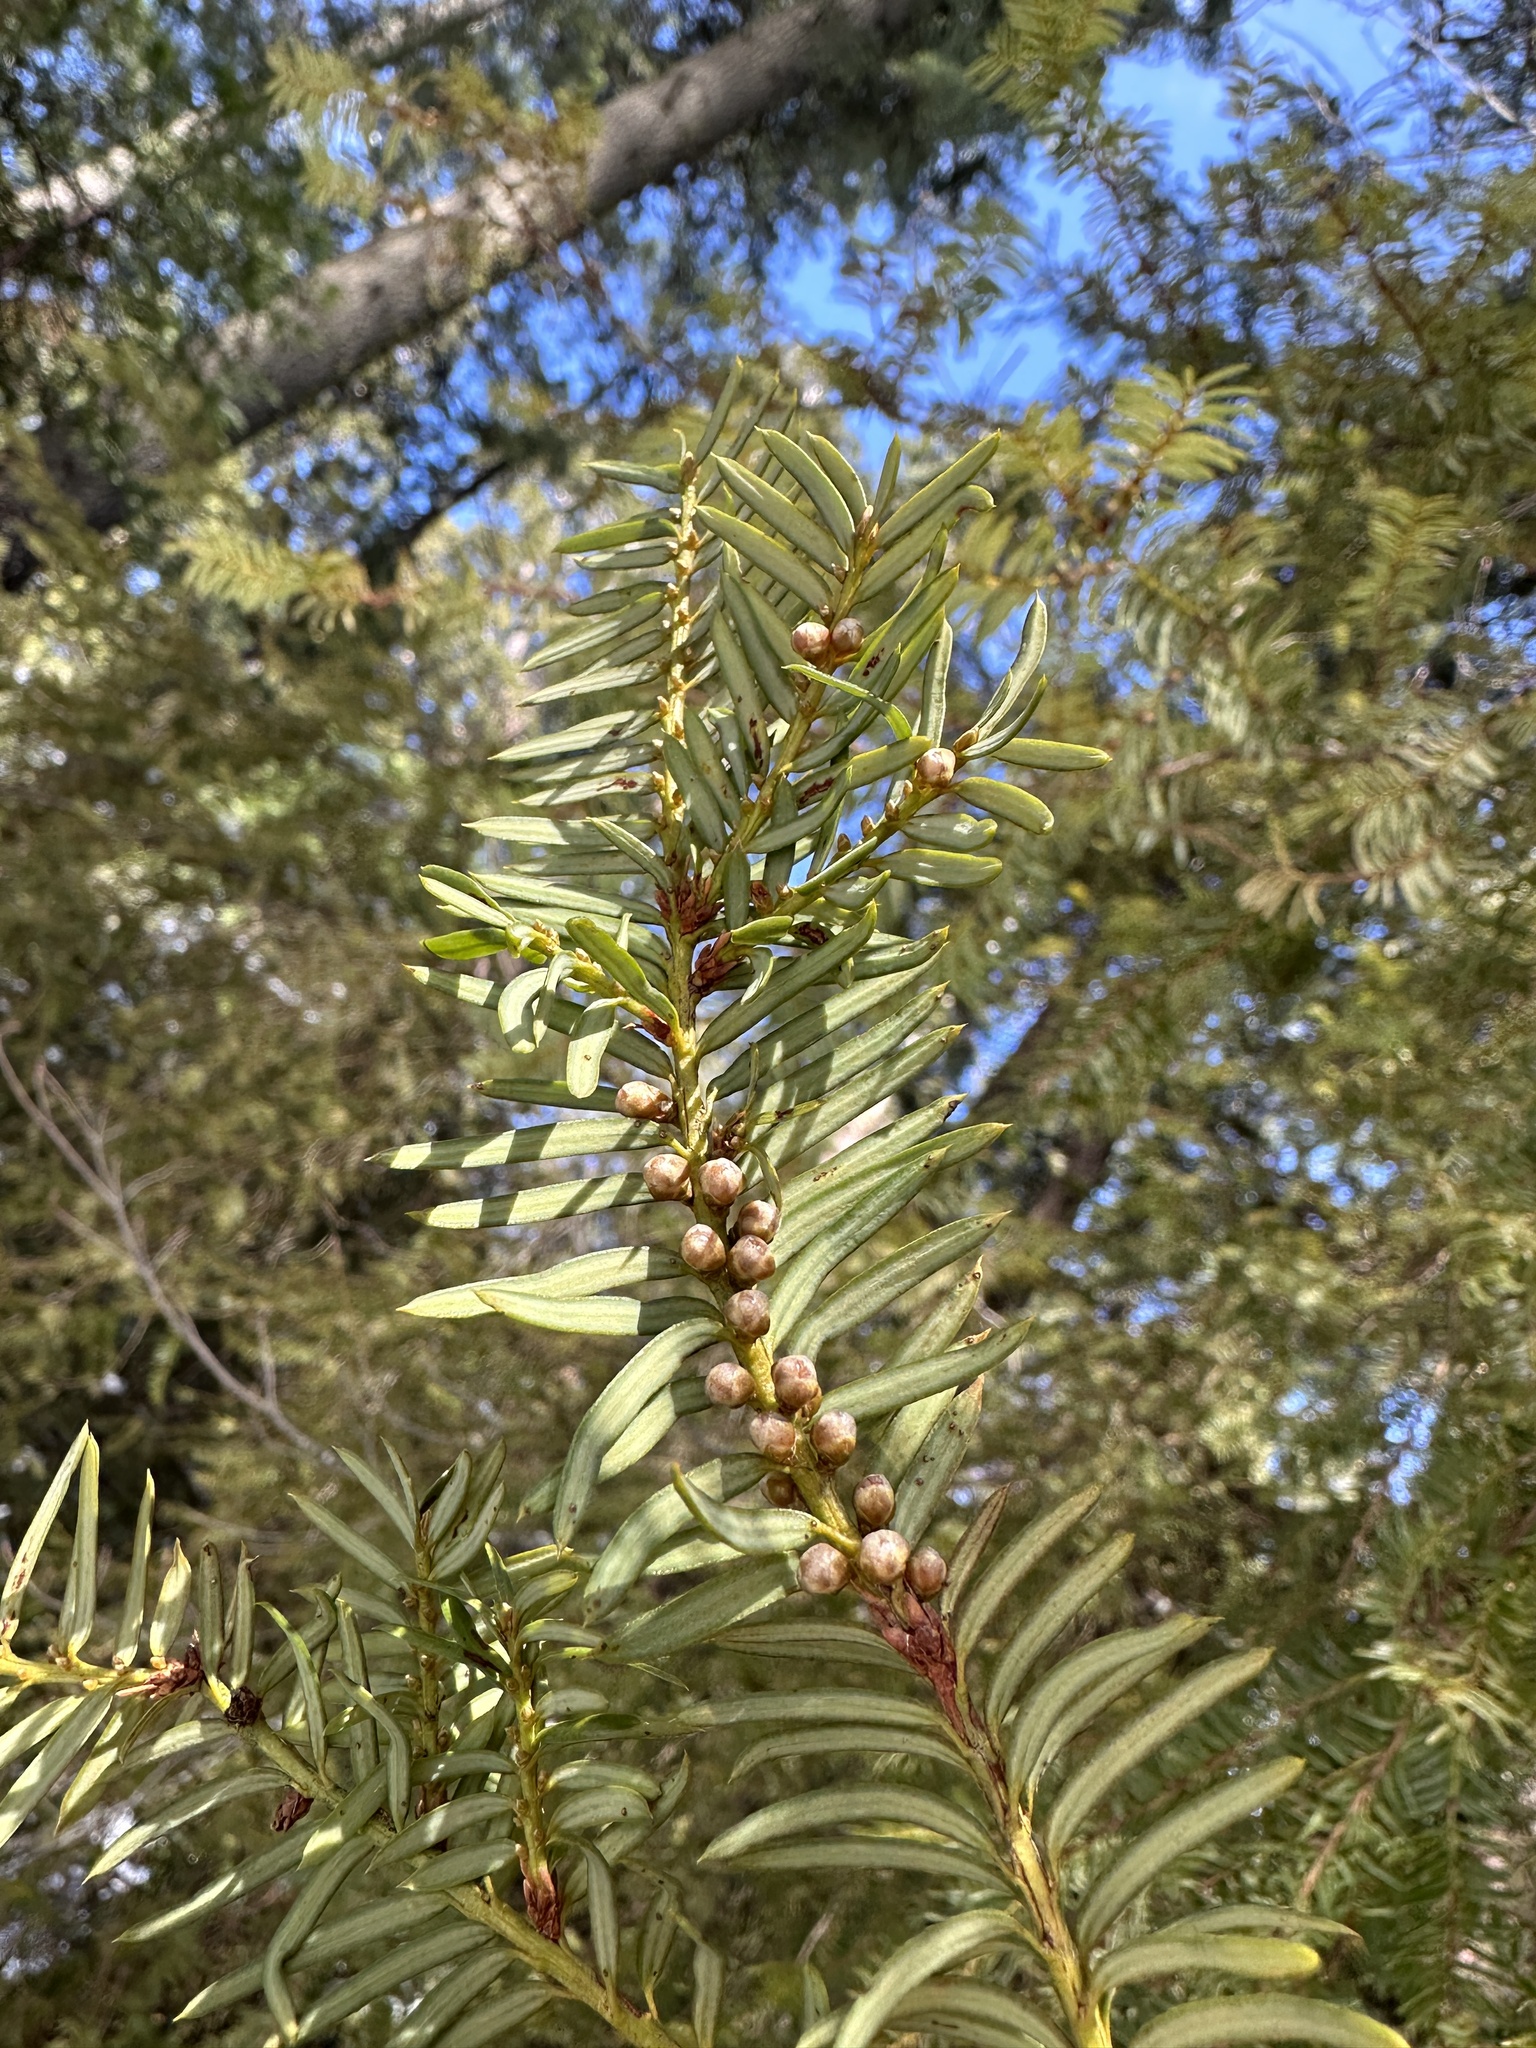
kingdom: Plantae
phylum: Tracheophyta
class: Pinopsida
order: Pinales
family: Taxaceae
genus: Taxus
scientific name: Taxus brevifolia
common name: Pacific yew
